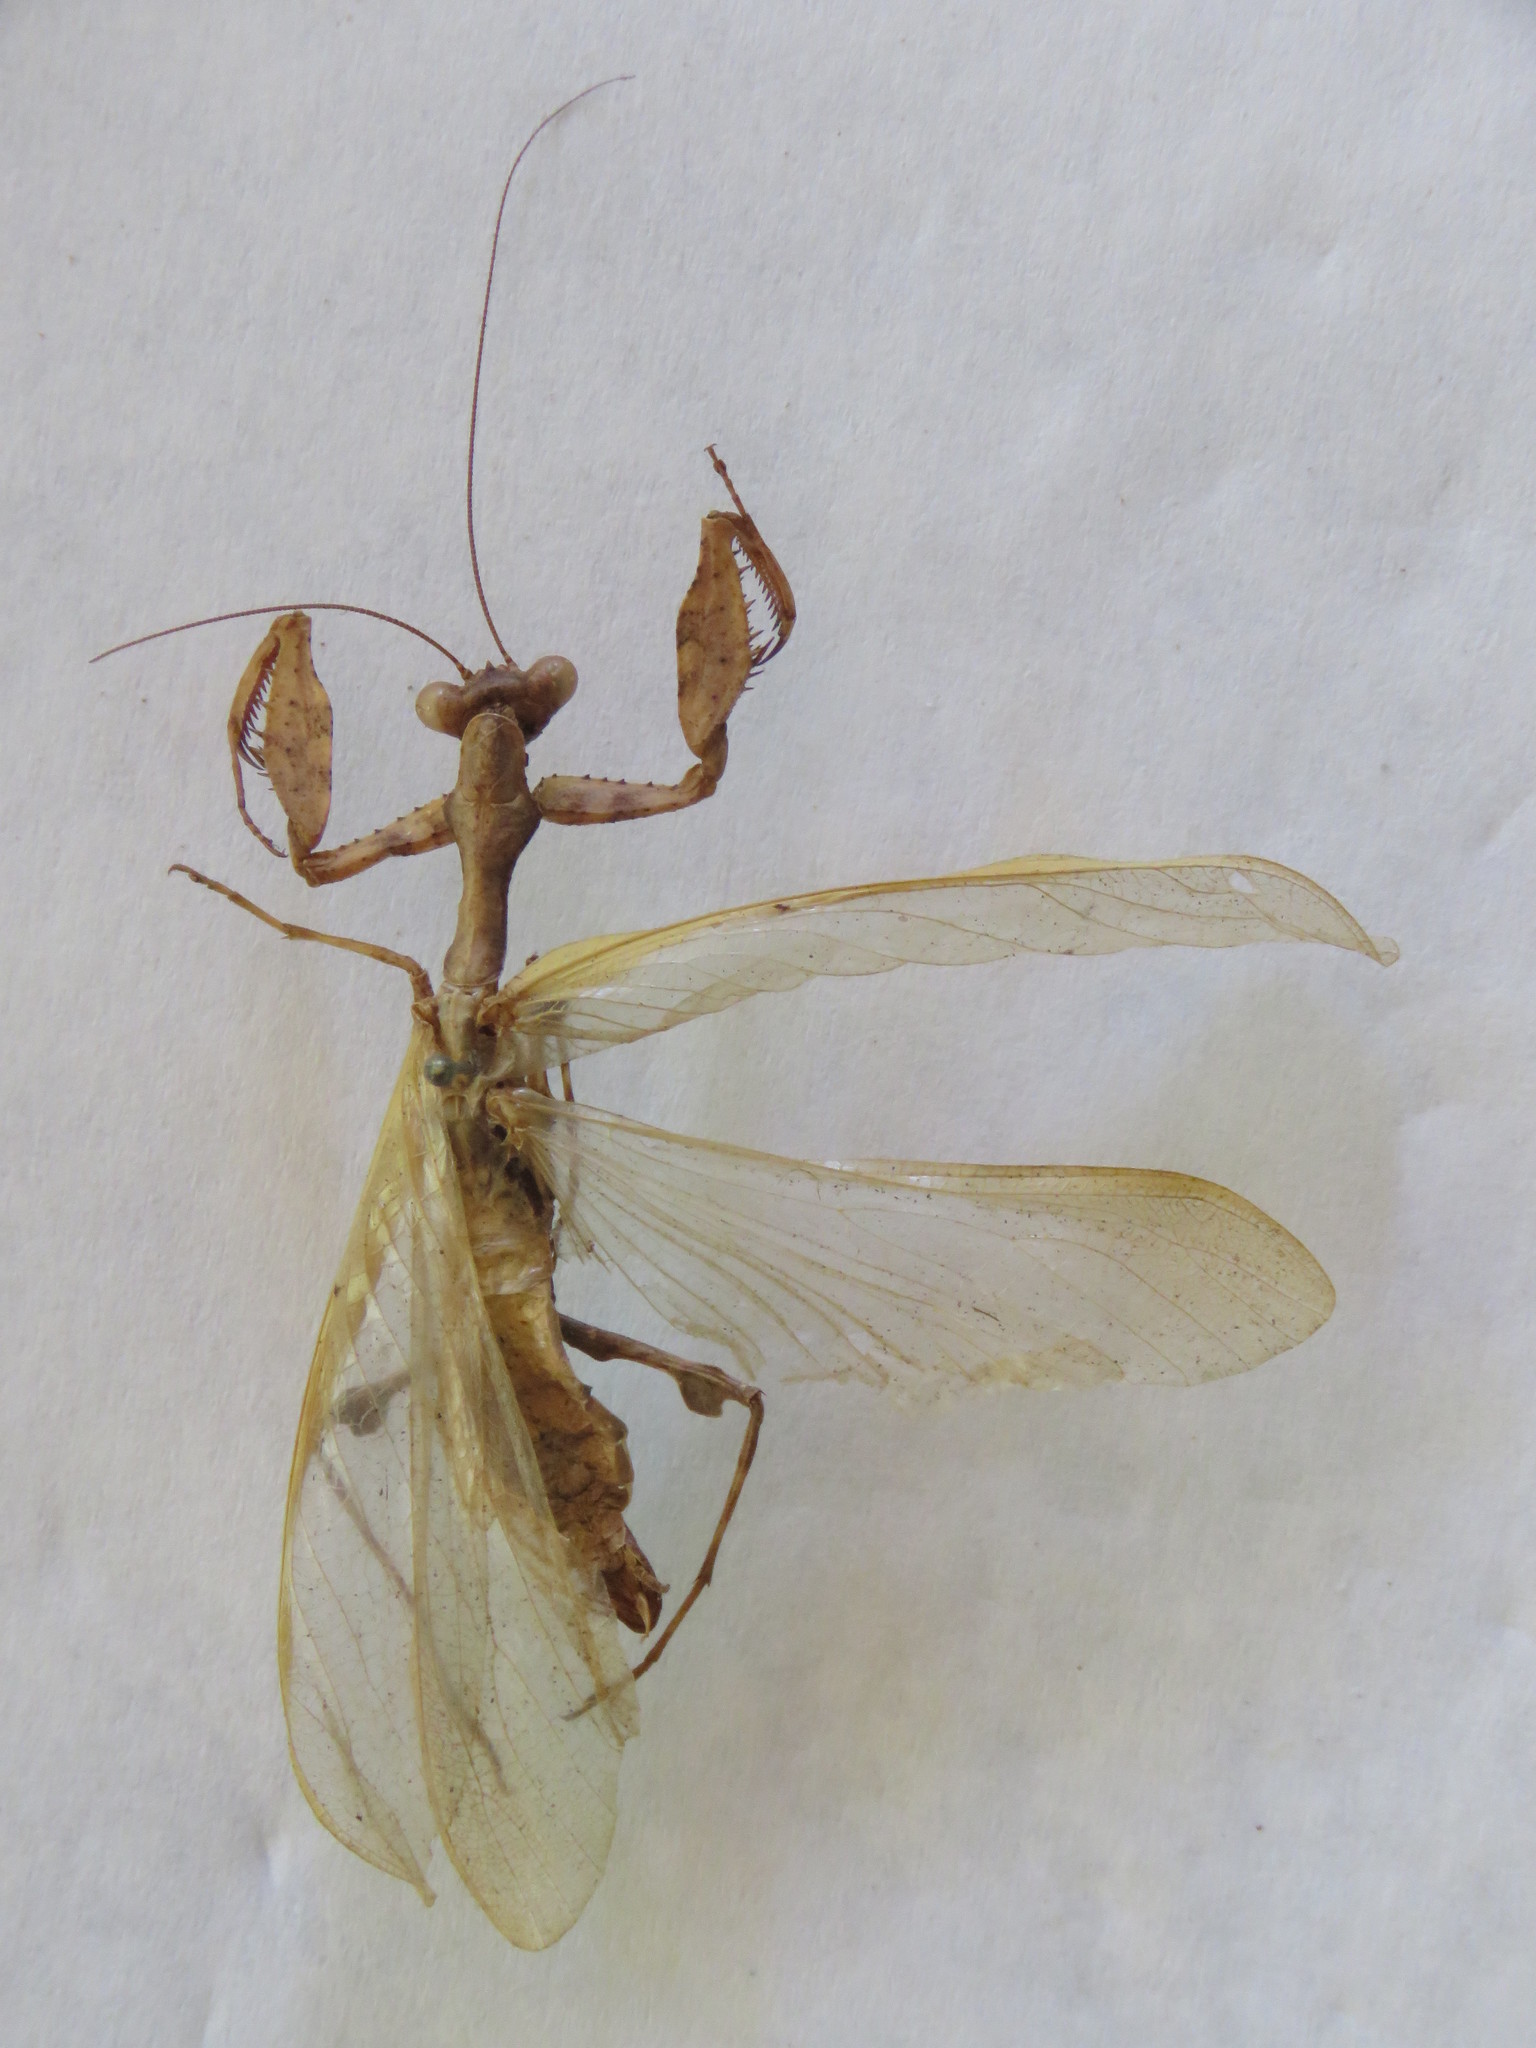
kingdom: Animalia
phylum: Arthropoda
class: Insecta
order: Mantodea
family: Mantidae
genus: Antemna
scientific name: Antemna rapax
